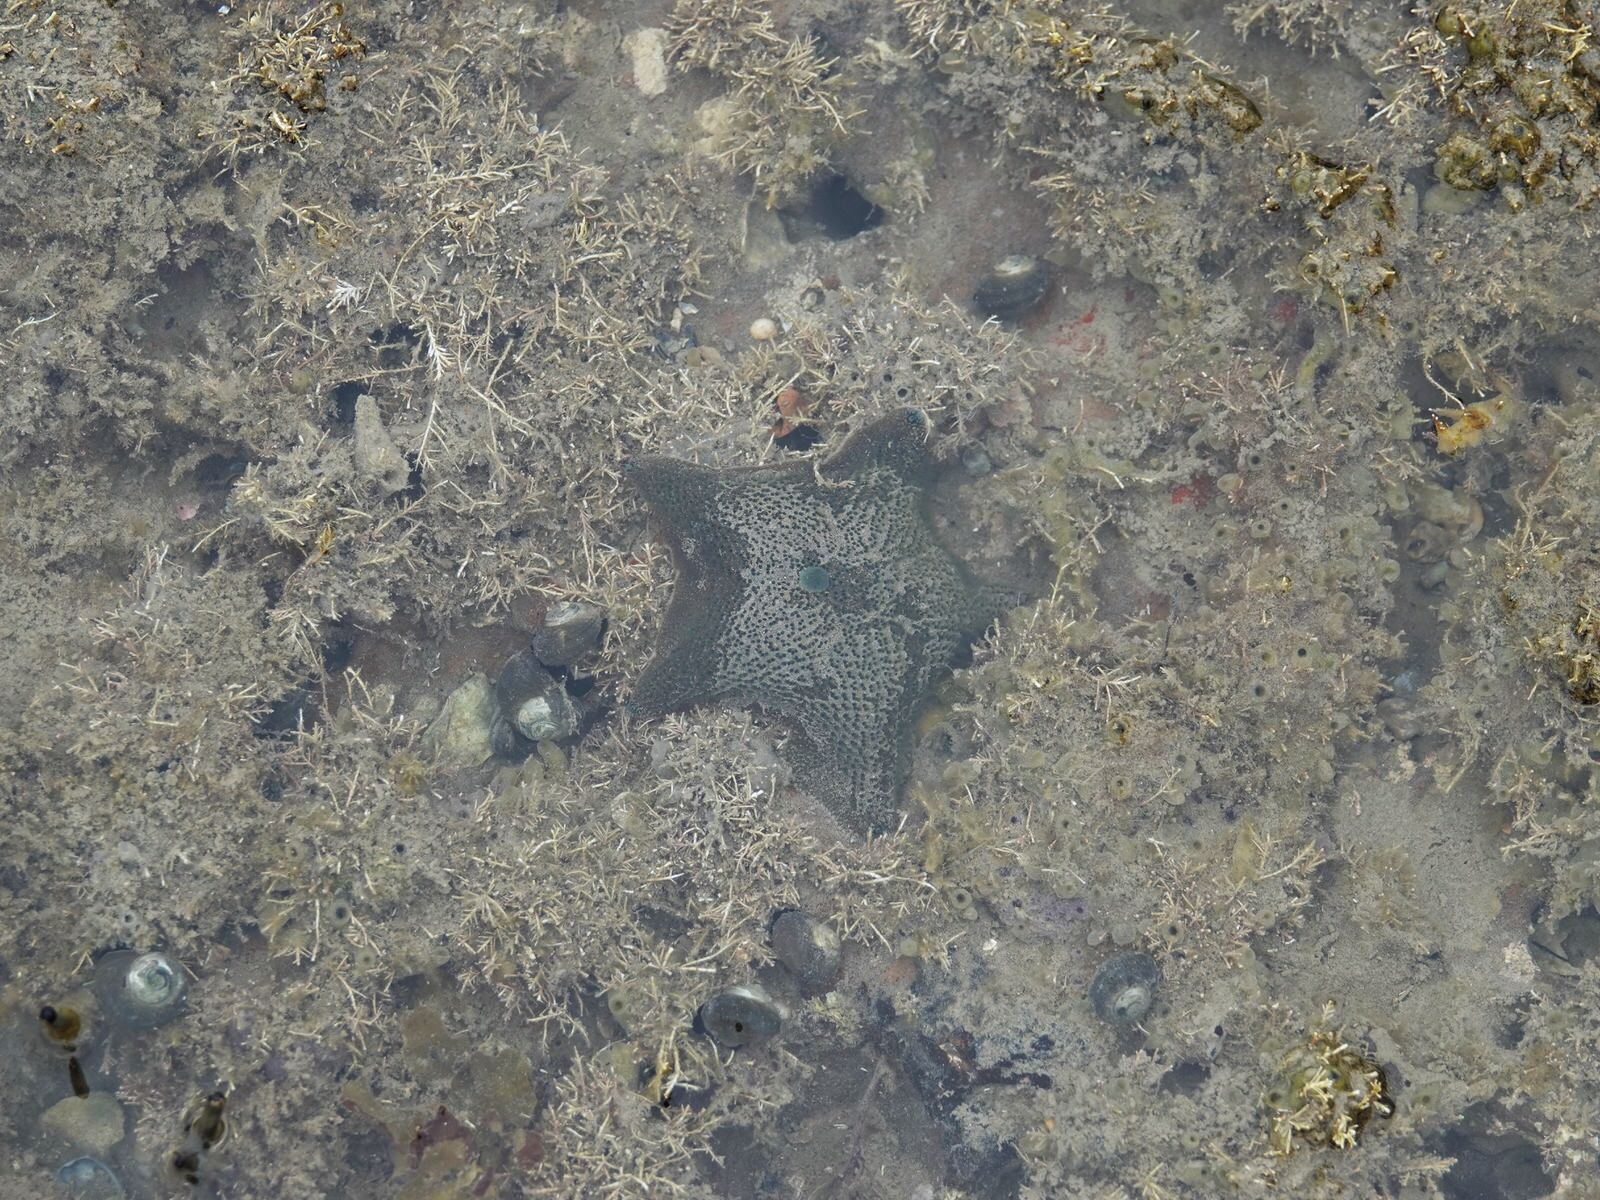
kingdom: Animalia
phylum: Echinodermata
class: Asteroidea
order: Valvatida
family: Asterinidae
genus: Patiriella
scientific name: Patiriella regularis
